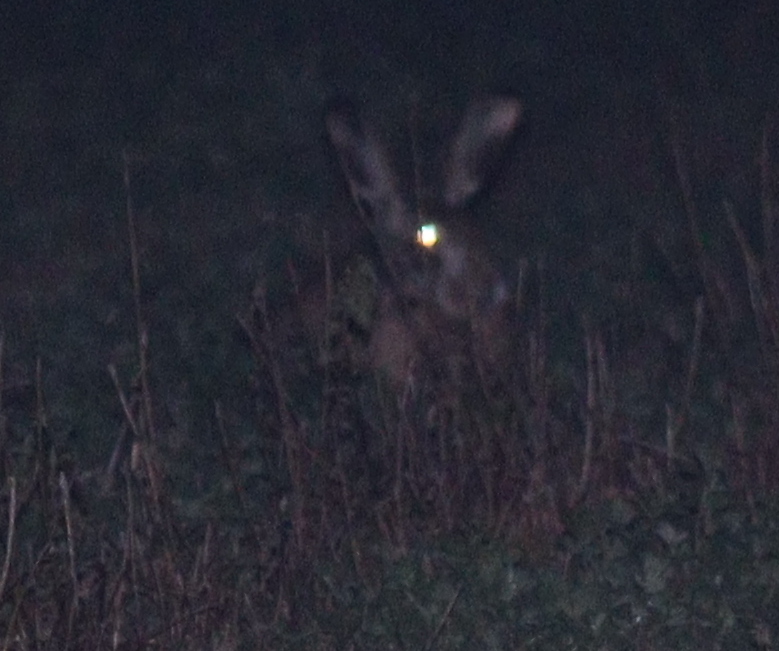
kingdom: Animalia
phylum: Chordata
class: Mammalia
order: Lagomorpha
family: Leporidae
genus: Lepus
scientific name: Lepus europaeus
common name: European hare
